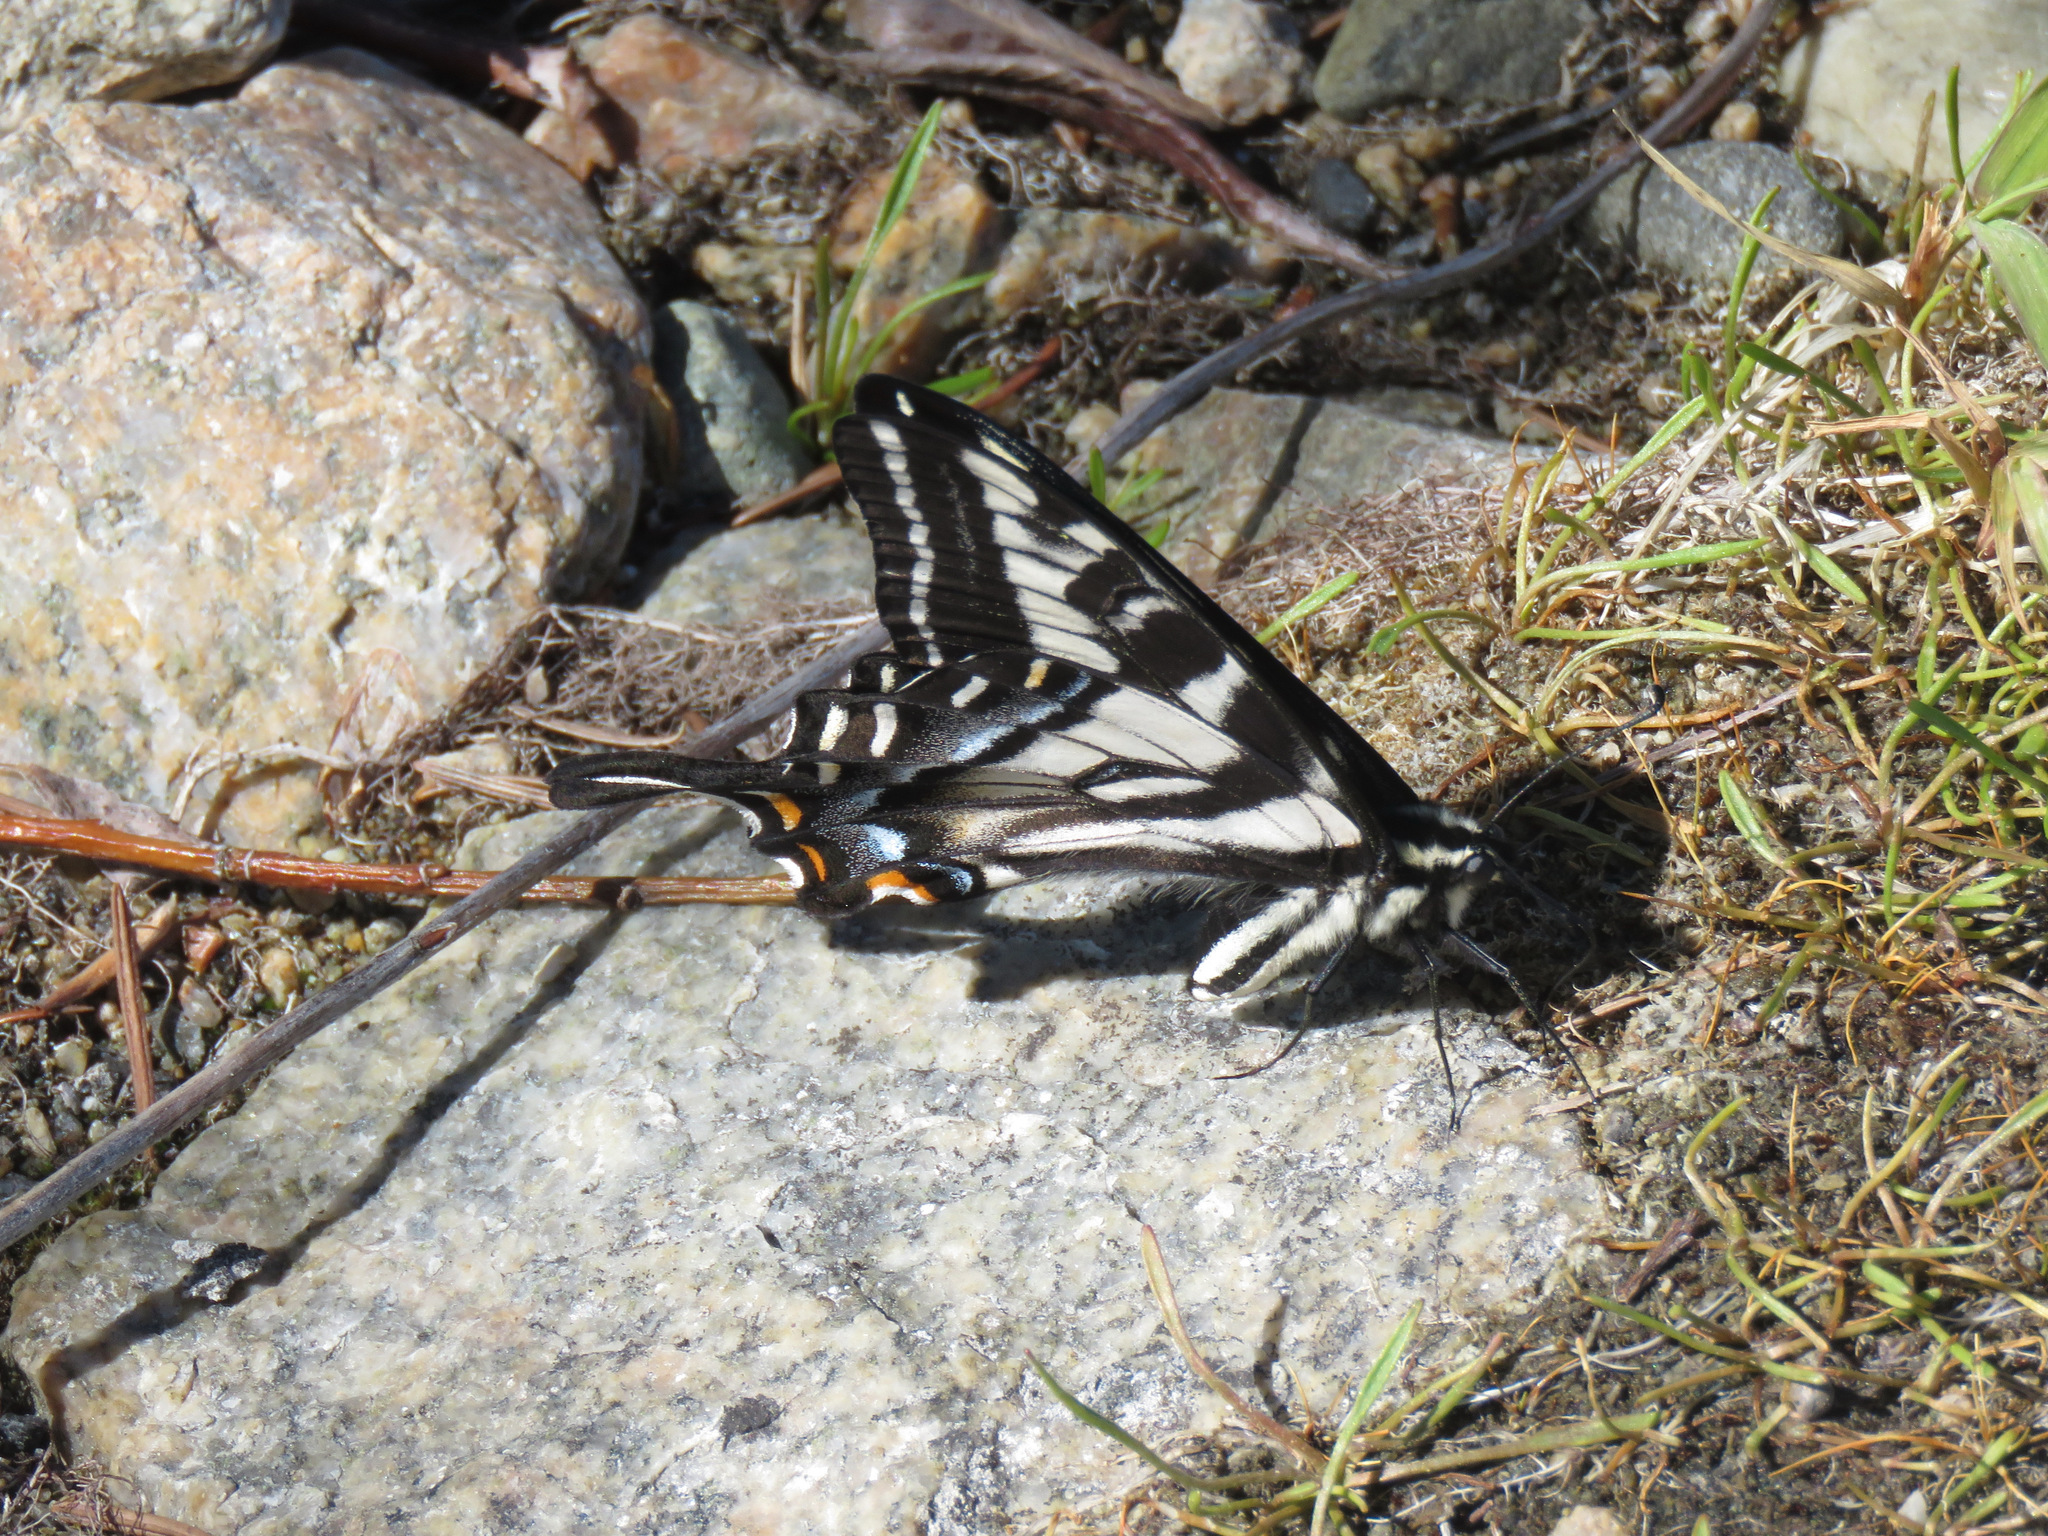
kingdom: Animalia
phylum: Arthropoda
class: Insecta
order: Lepidoptera
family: Papilionidae
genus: Papilio
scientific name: Papilio eurymedon
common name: Pale tiger swallowtail
